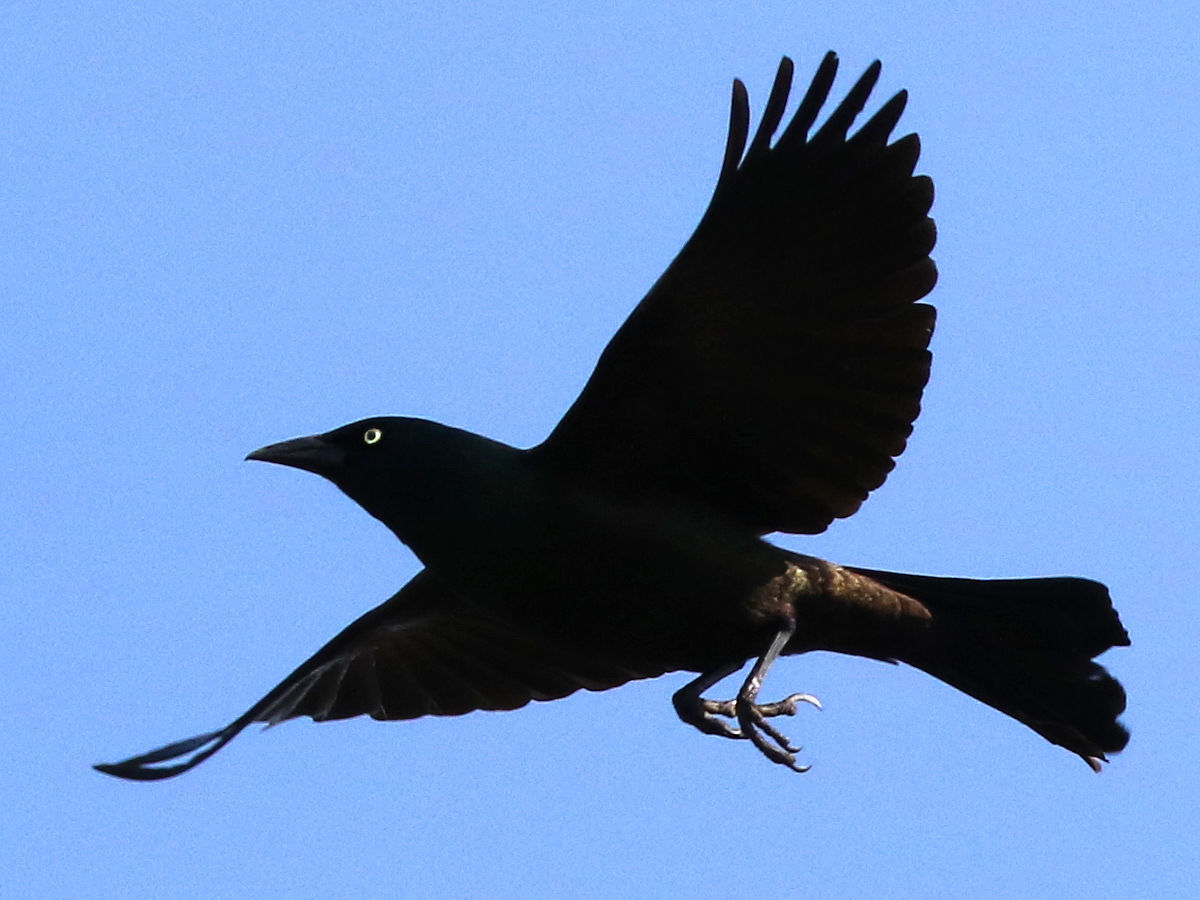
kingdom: Animalia
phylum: Chordata
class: Aves
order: Passeriformes
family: Icteridae
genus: Quiscalus
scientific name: Quiscalus quiscula
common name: Common grackle
